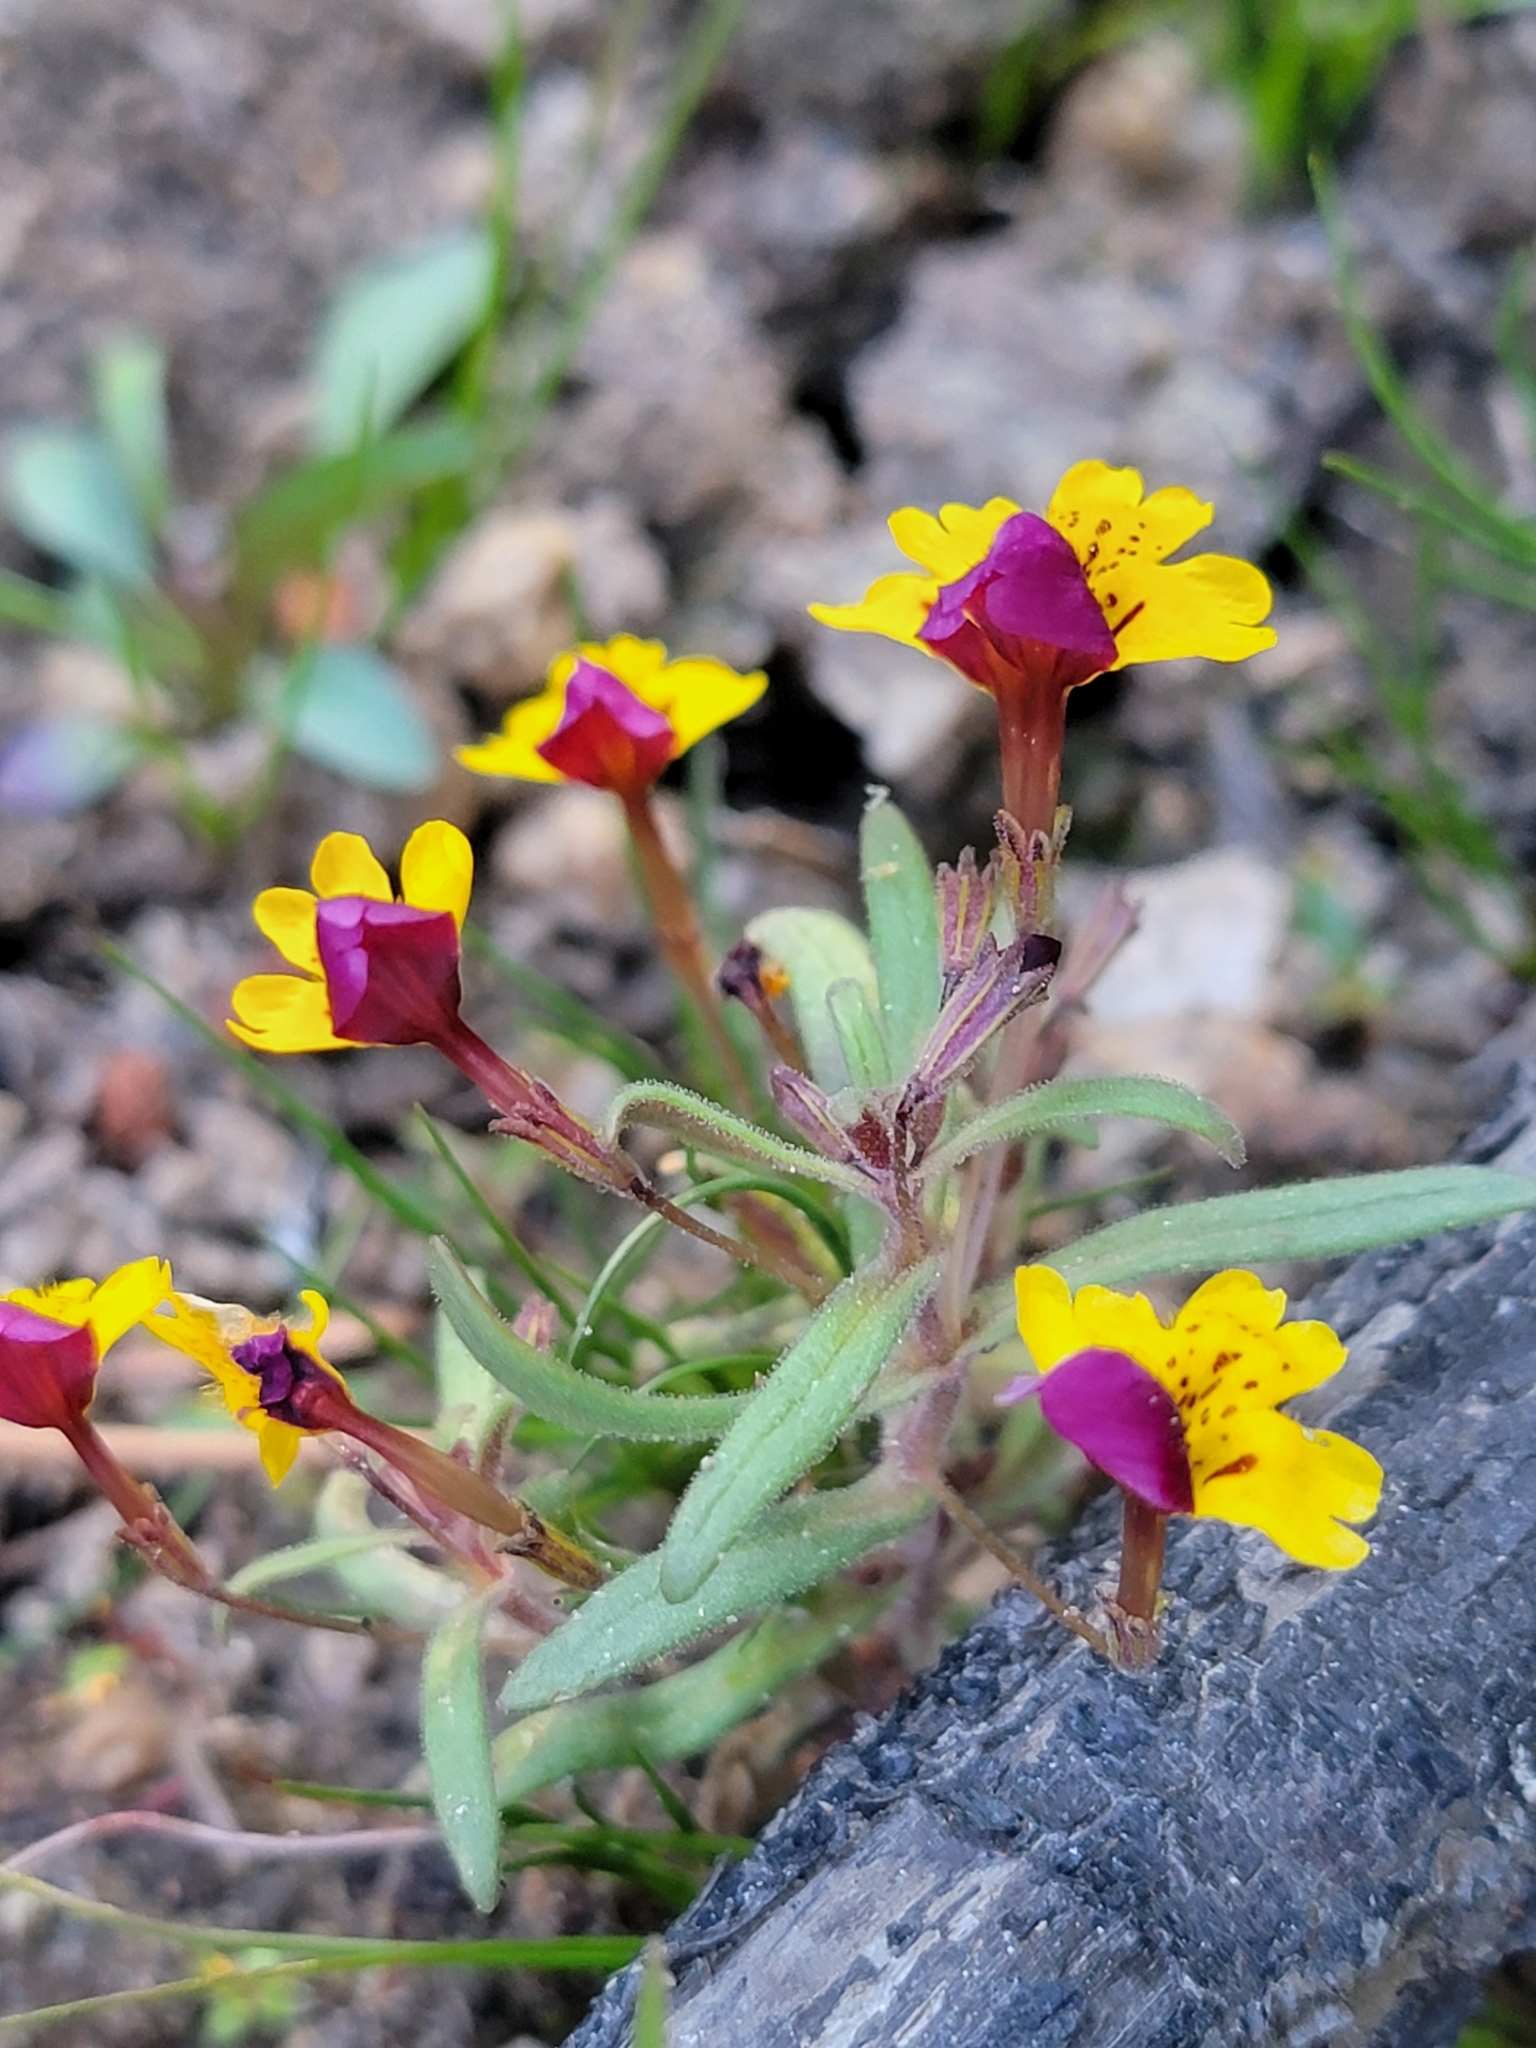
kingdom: Plantae
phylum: Tracheophyta
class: Magnoliopsida
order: Lamiales
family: Phrymaceae
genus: Erythranthe
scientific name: Erythranthe barbata
